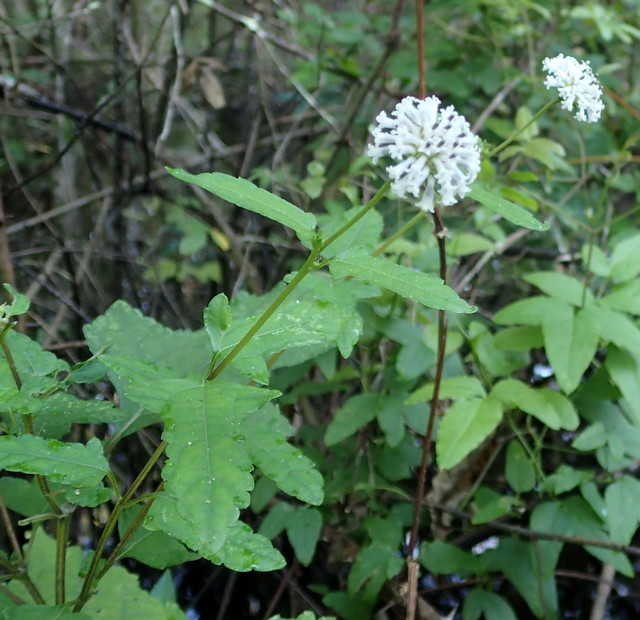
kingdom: Plantae
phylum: Tracheophyta
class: Magnoliopsida
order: Asterales
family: Asteraceae
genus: Melanthera
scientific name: Melanthera nivea
